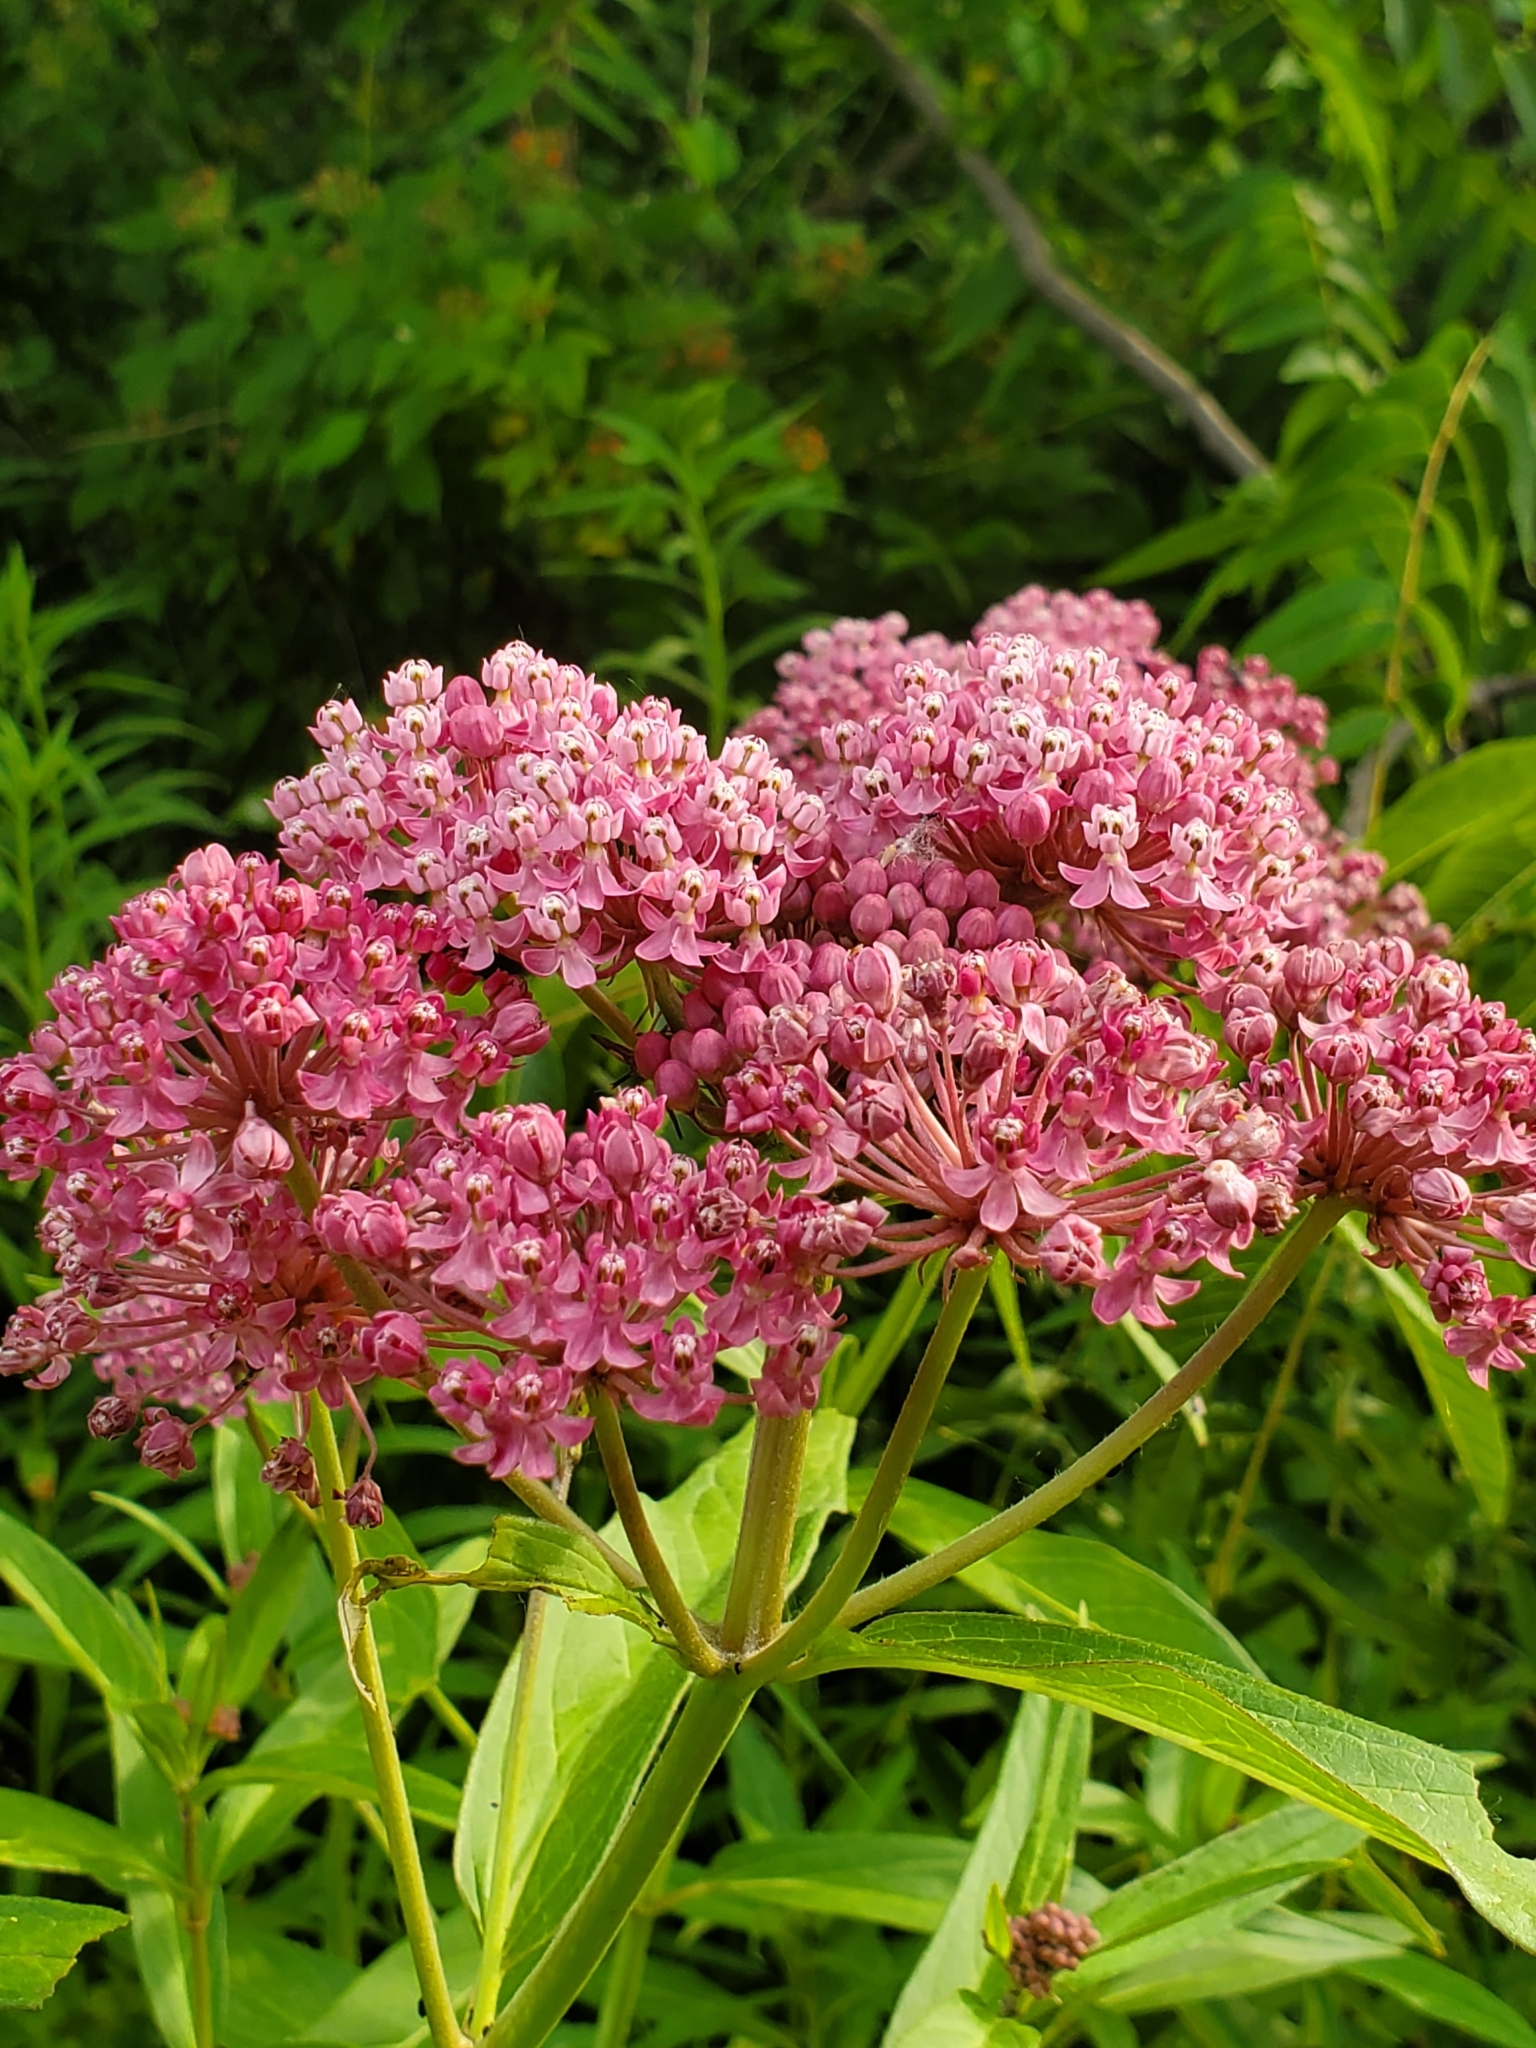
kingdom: Plantae
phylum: Tracheophyta
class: Magnoliopsida
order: Gentianales
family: Apocynaceae
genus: Asclepias
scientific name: Asclepias incarnata
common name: Swamp milkweed
